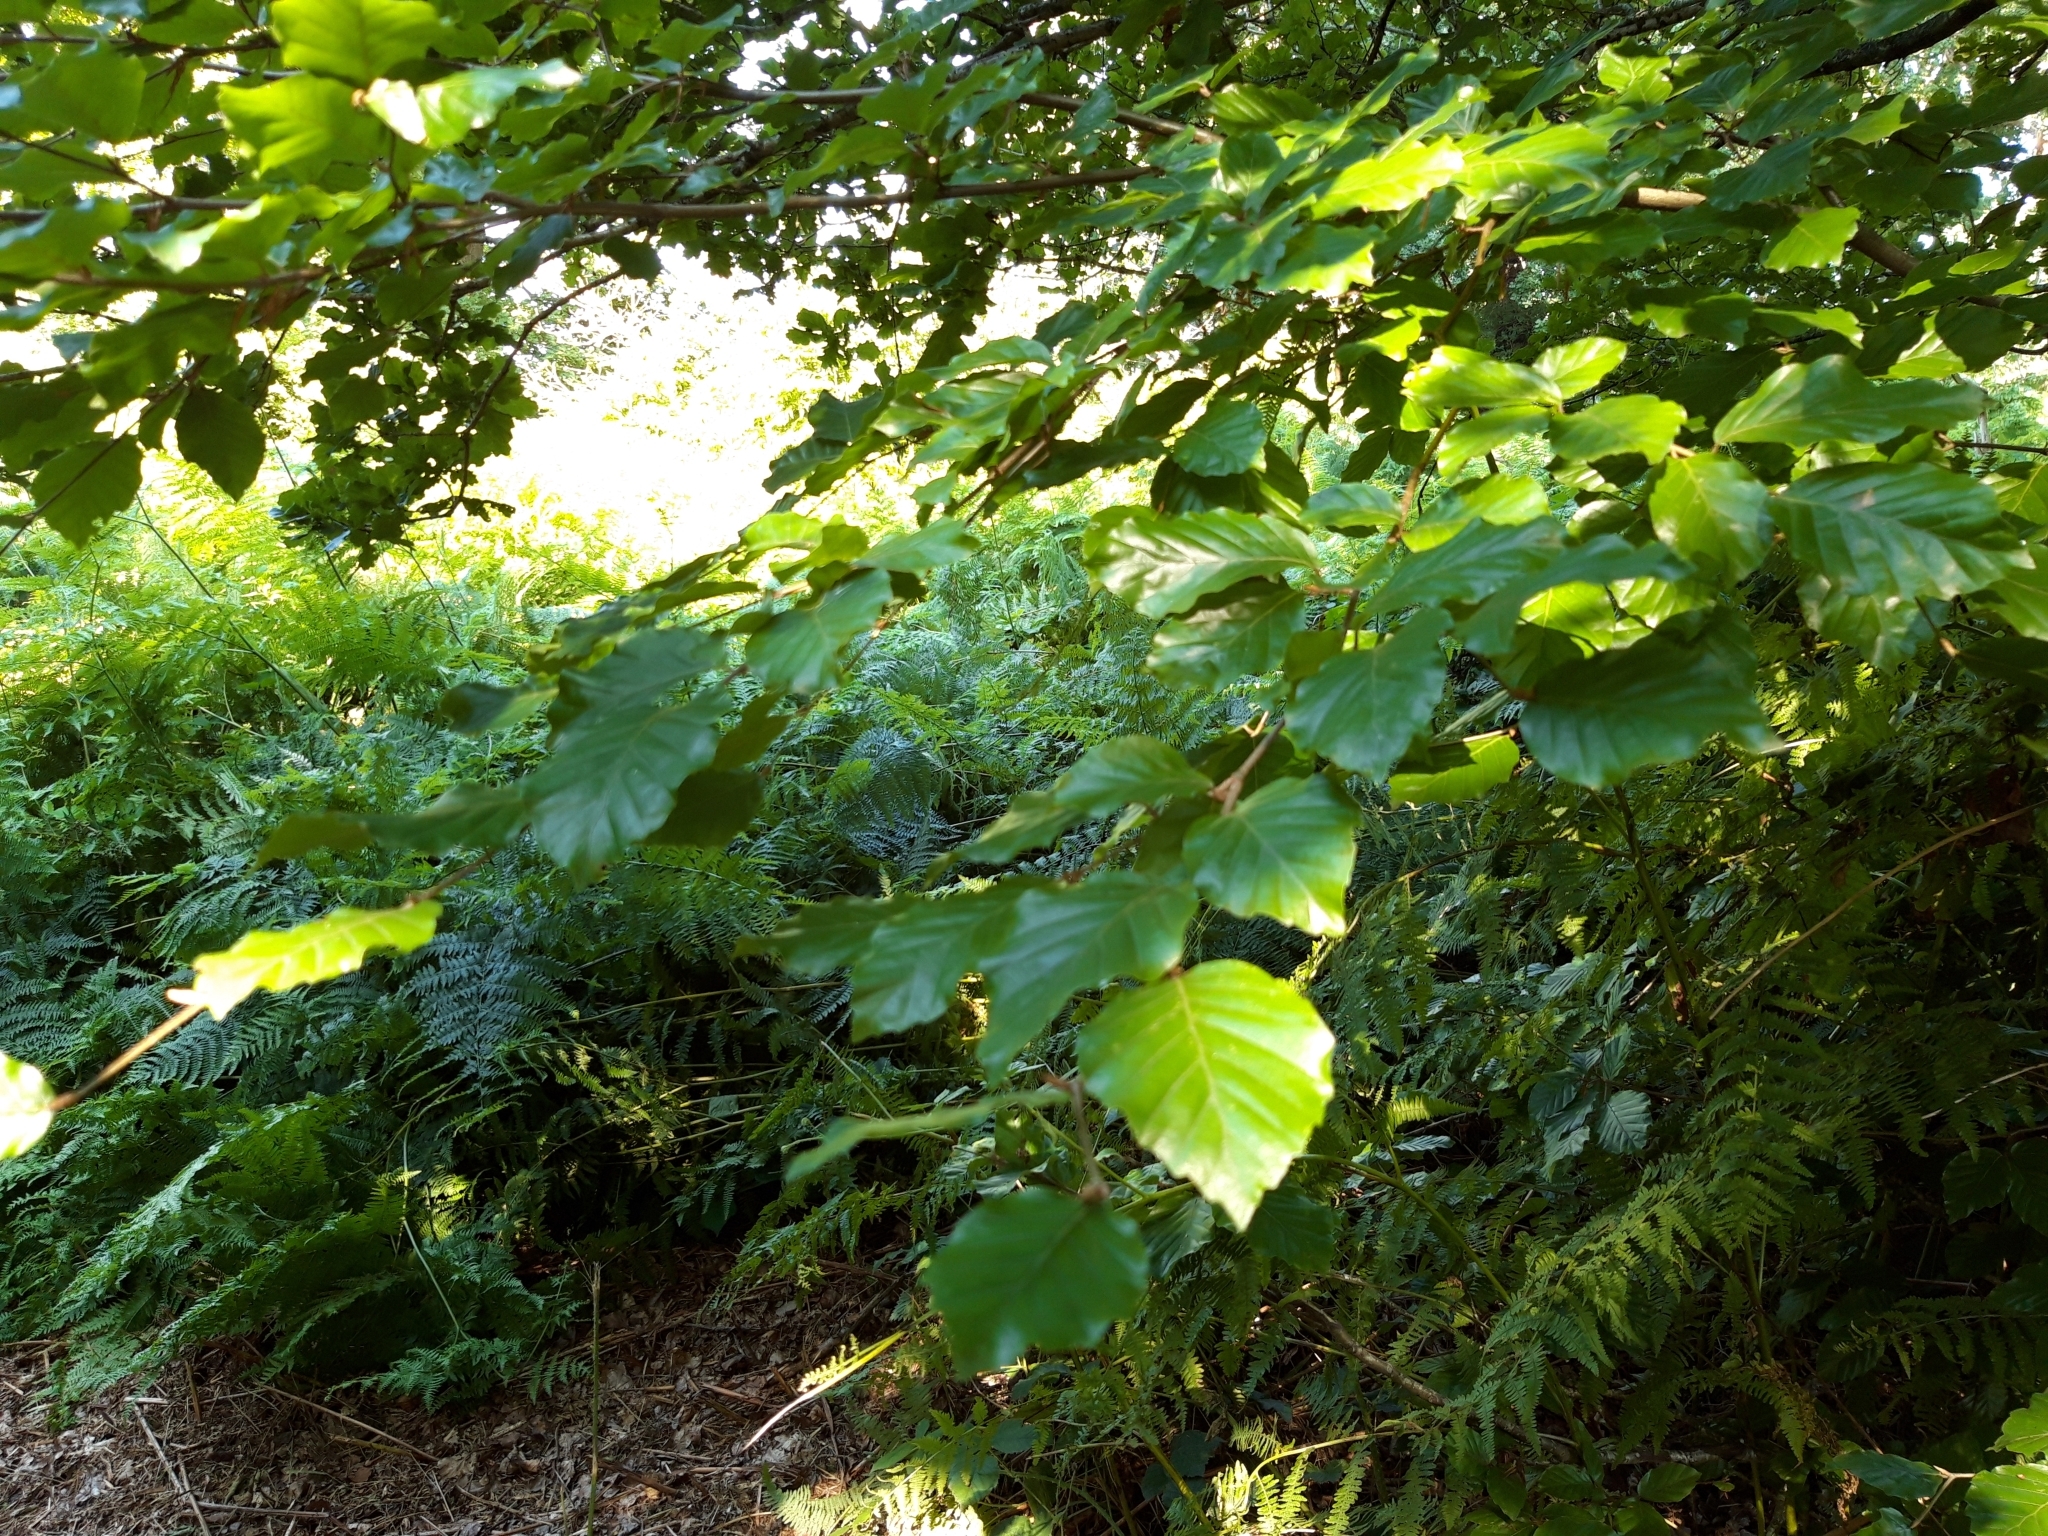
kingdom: Plantae
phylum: Tracheophyta
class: Magnoliopsida
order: Fagales
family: Fagaceae
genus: Fagus
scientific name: Fagus sylvatica
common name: Beech
